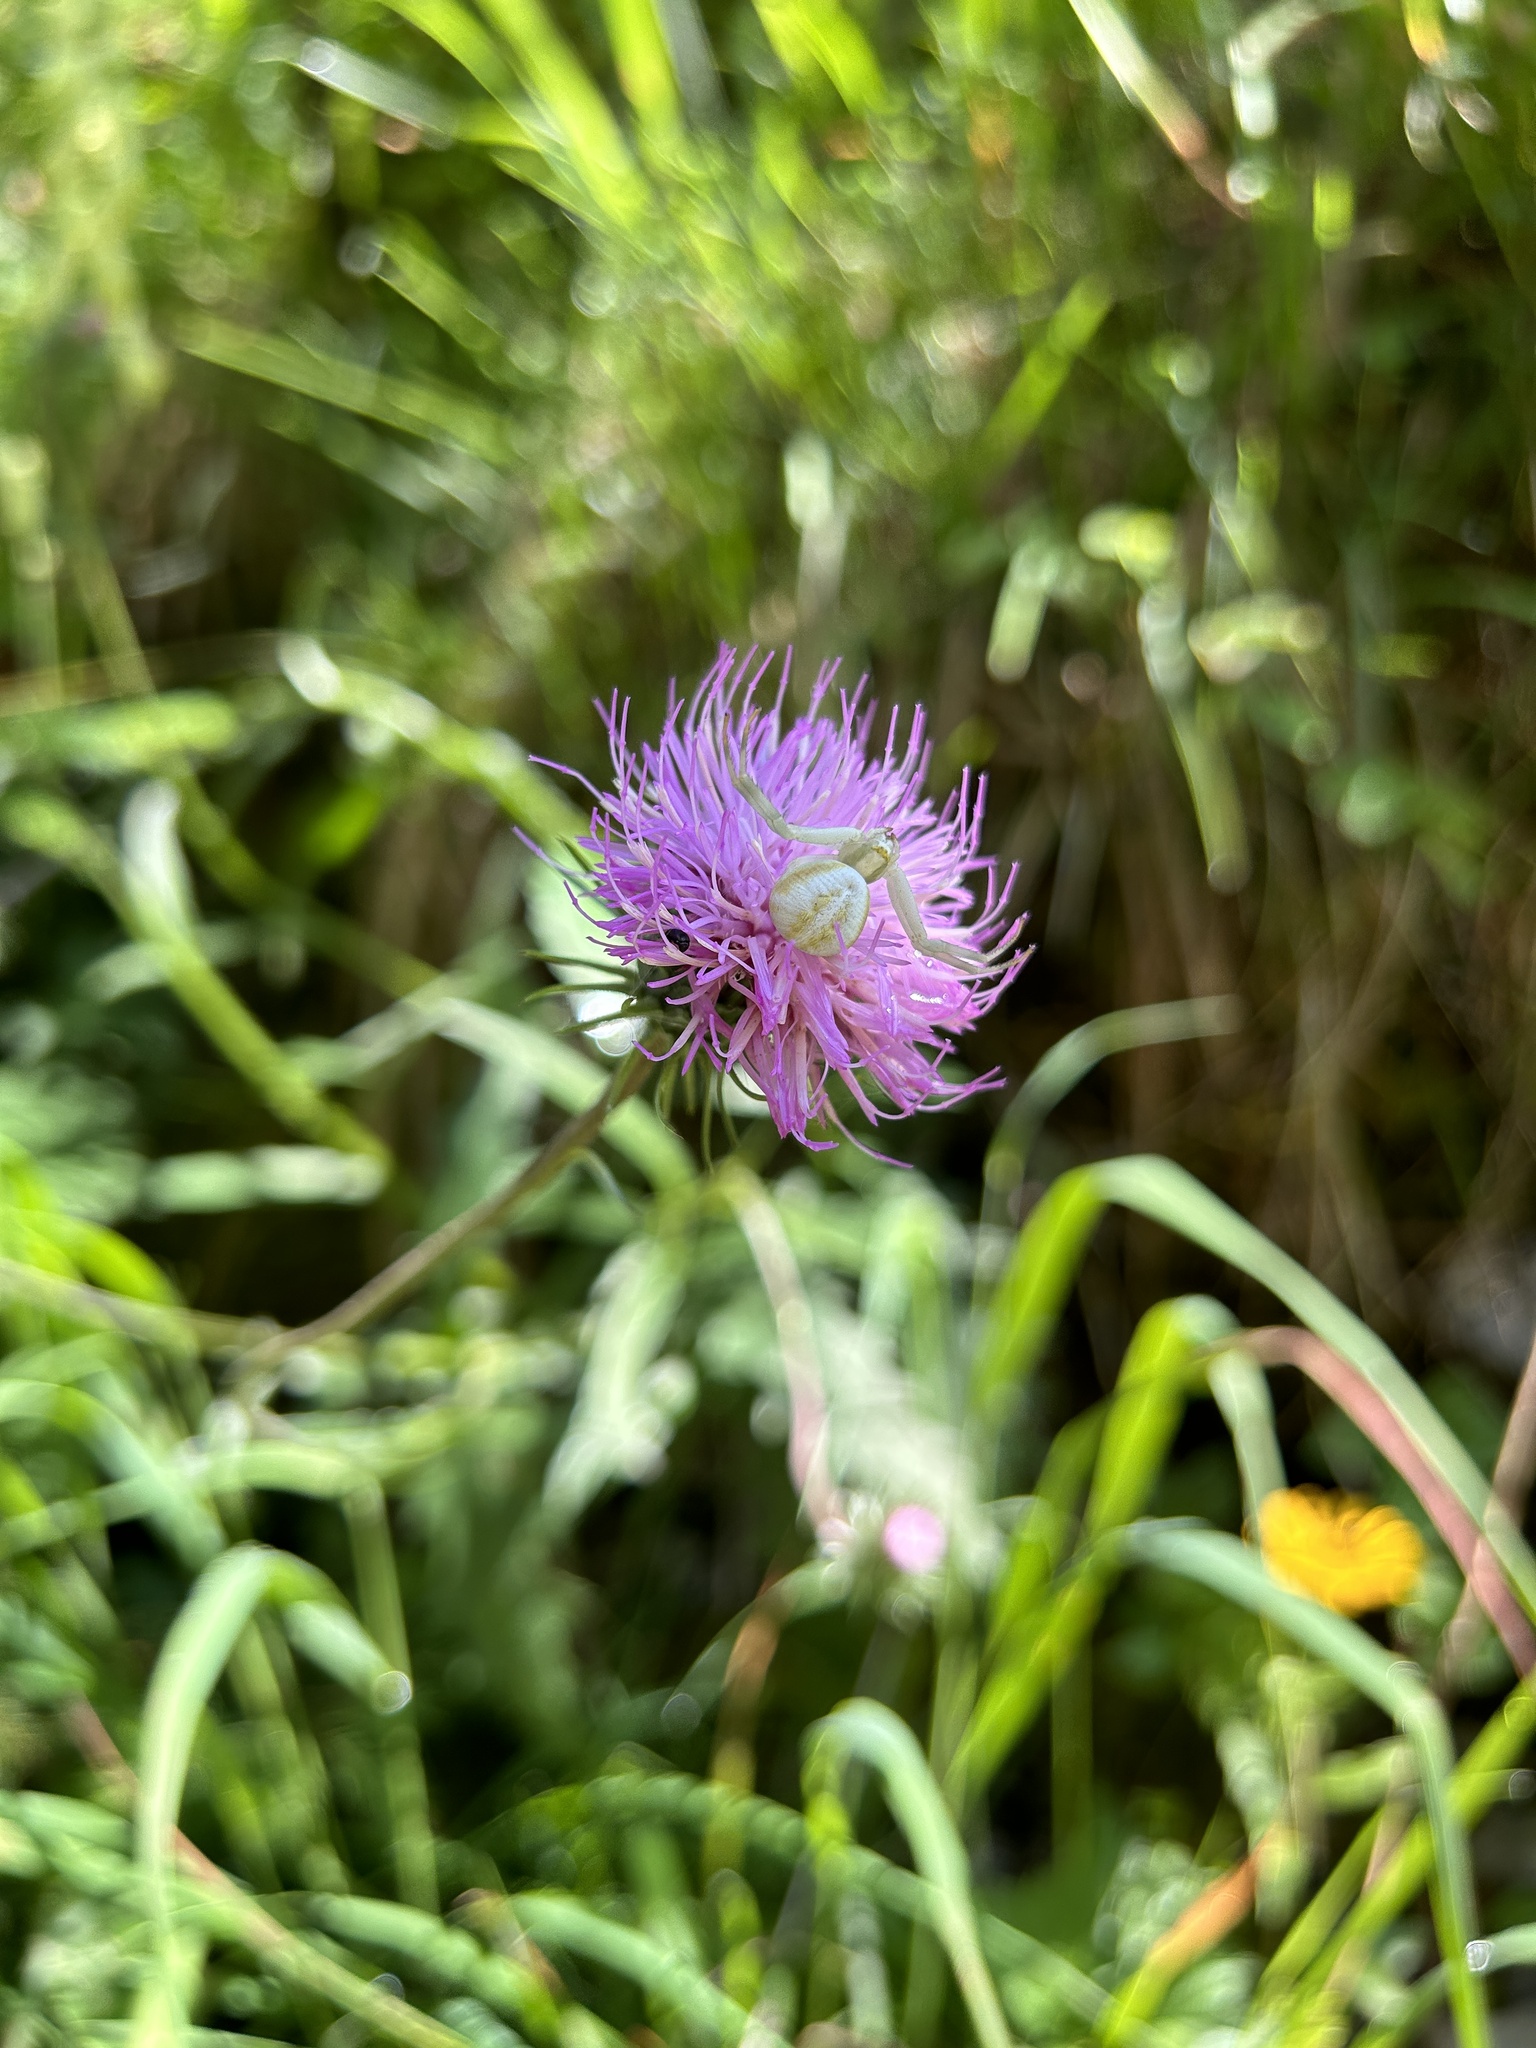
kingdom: Animalia
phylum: Arthropoda
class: Arachnida
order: Araneae
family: Thomisidae
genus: Misumena
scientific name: Misumena vatia
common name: Goldenrod crab spider
